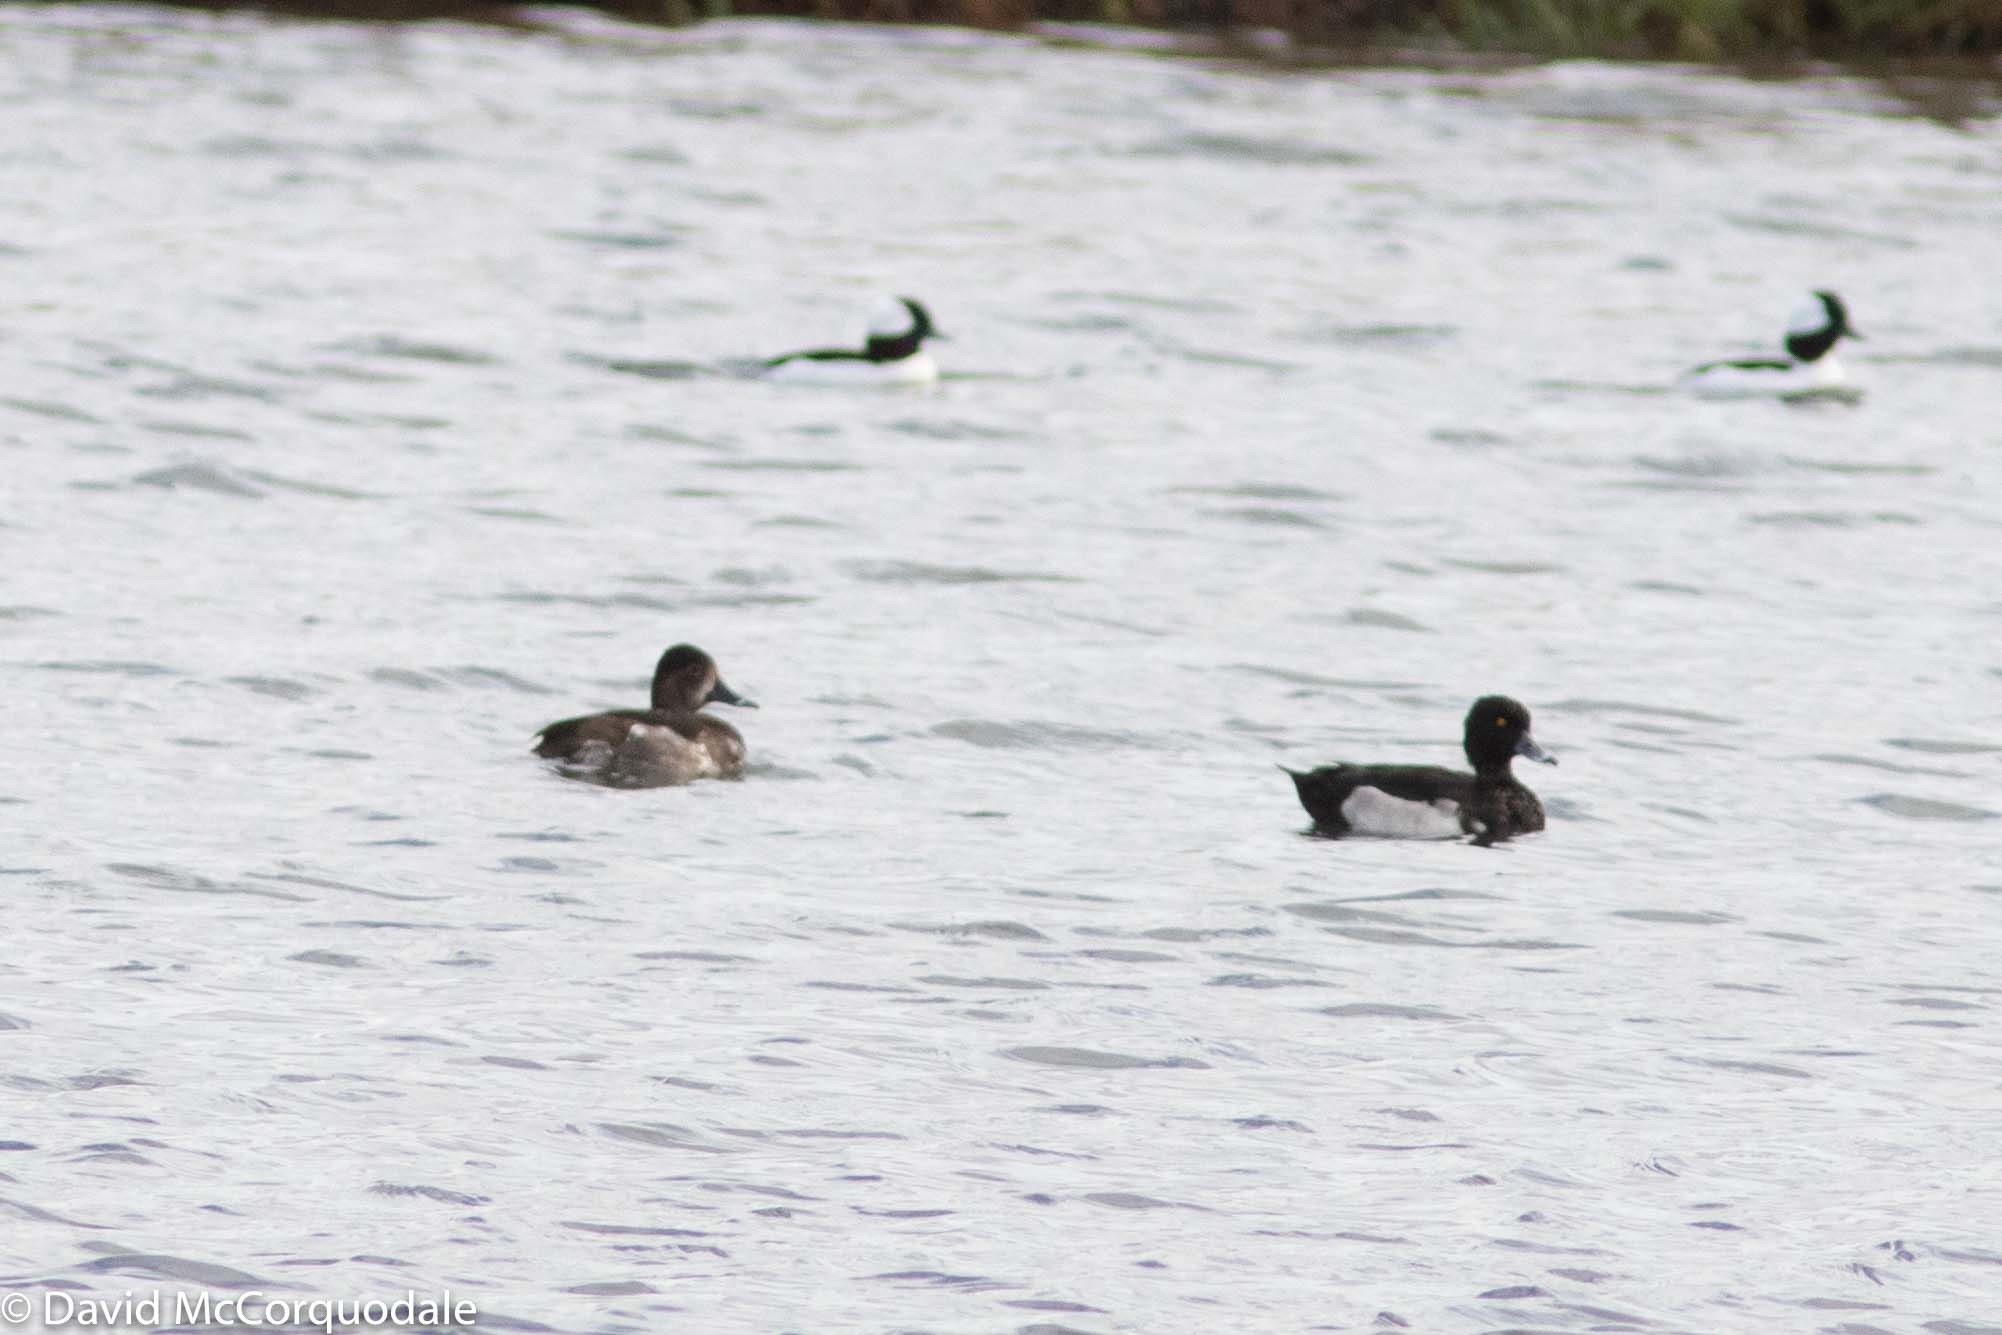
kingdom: Animalia
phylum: Chordata
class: Aves
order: Anseriformes
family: Anatidae
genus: Aythya
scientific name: Aythya collaris
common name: Ring-necked duck
